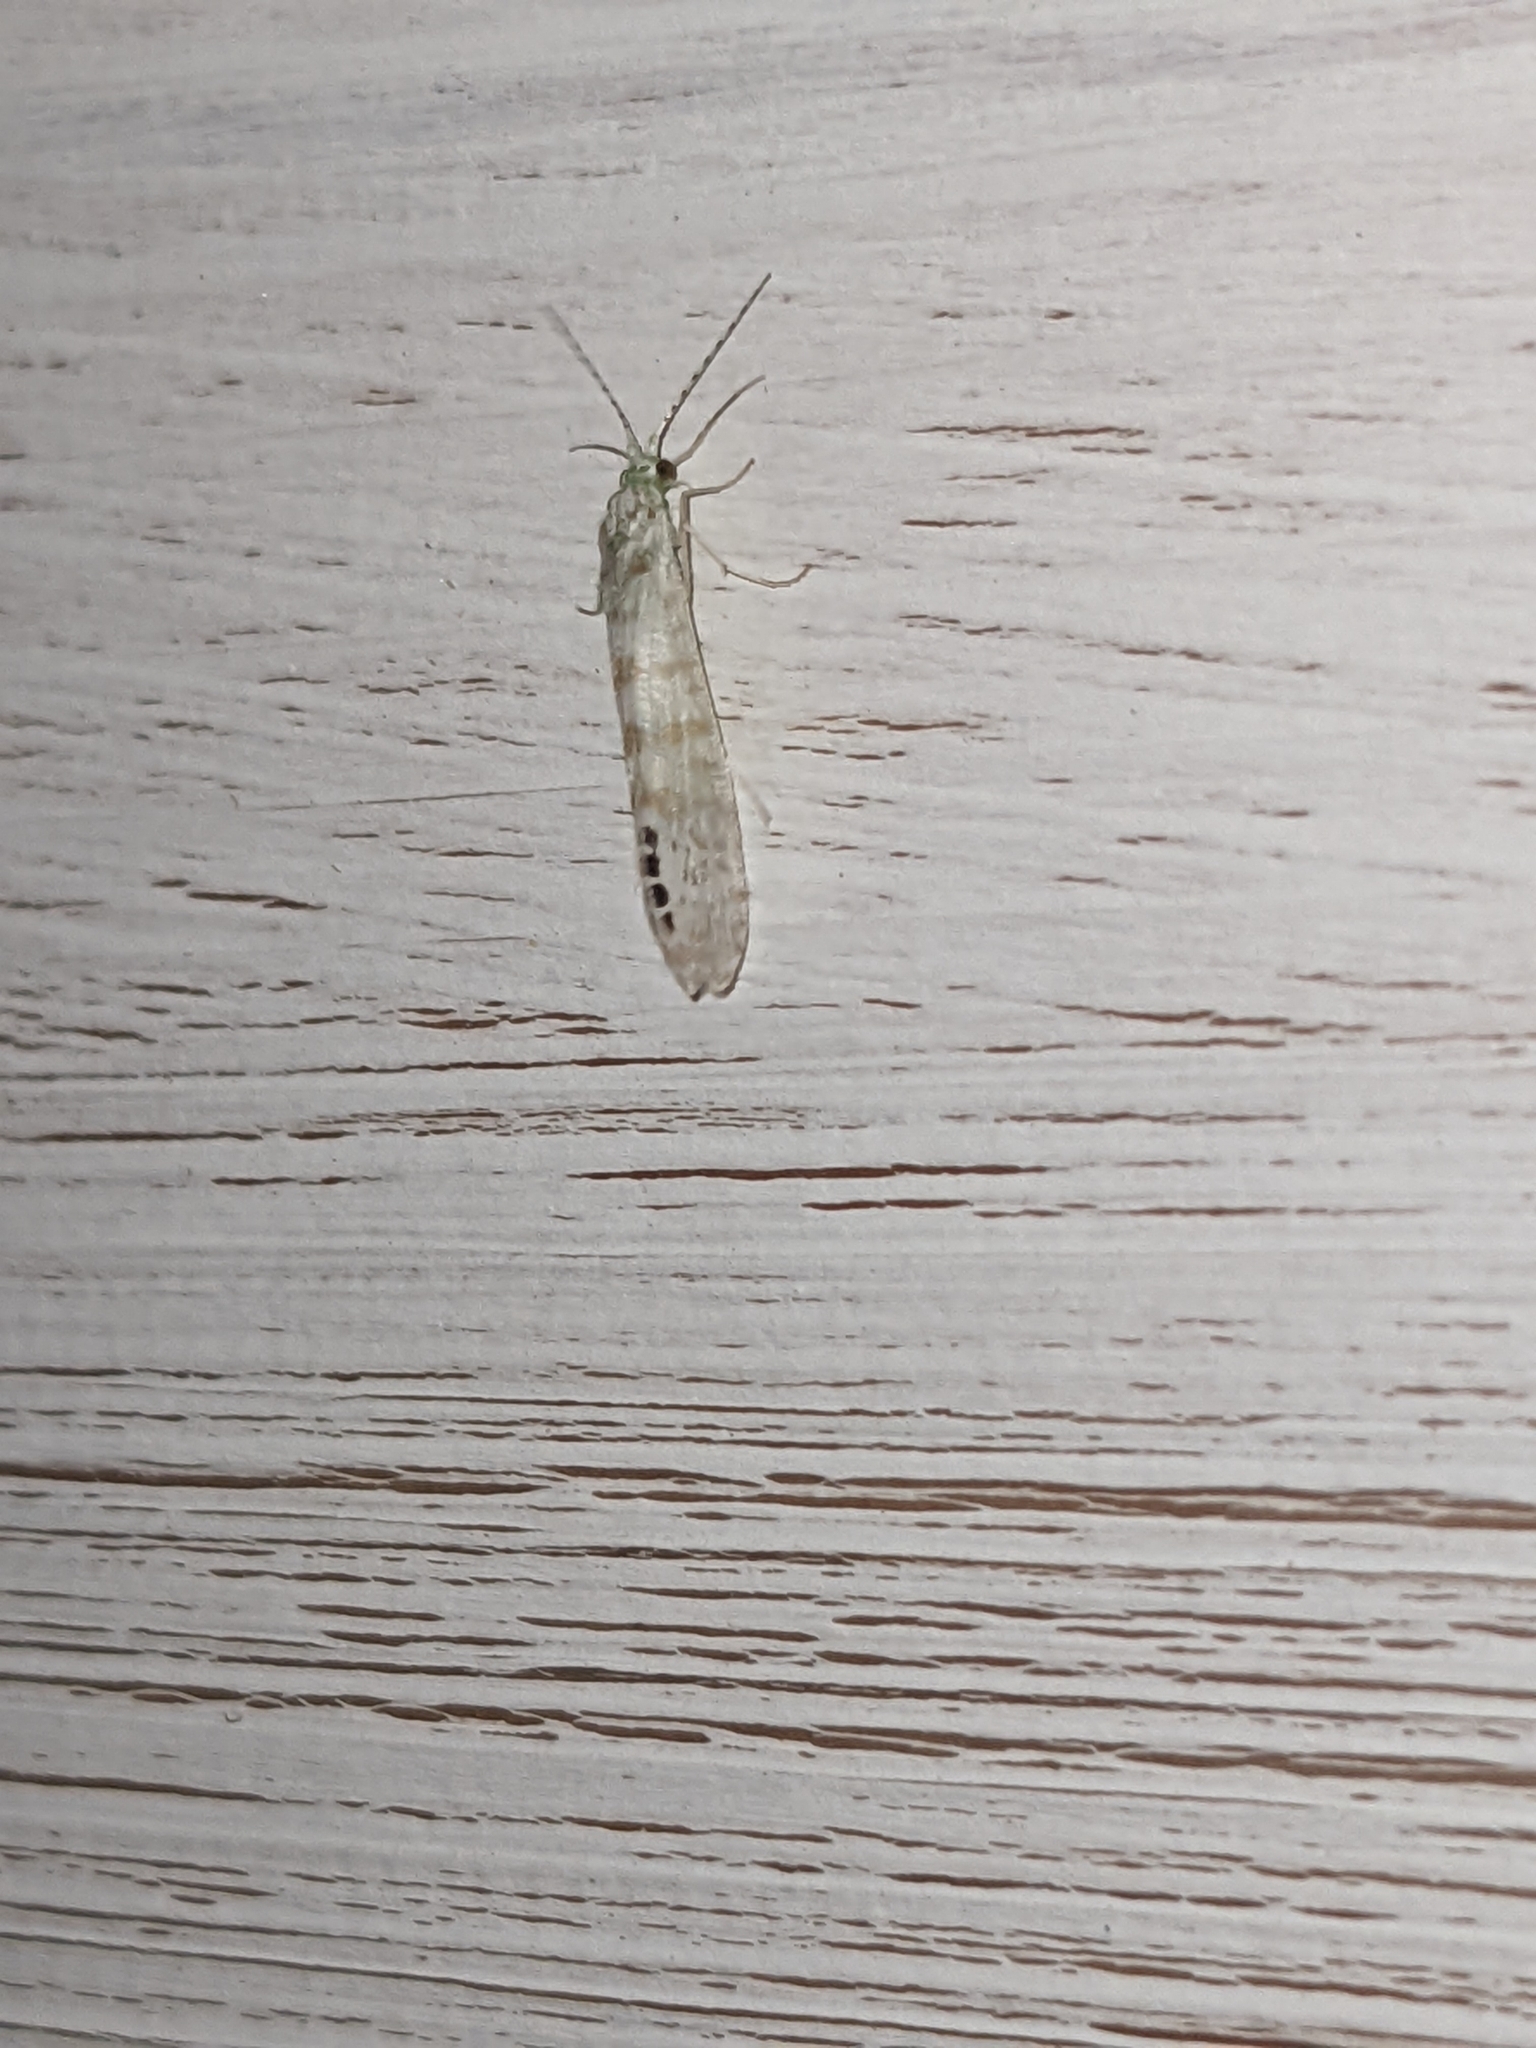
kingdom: Animalia
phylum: Arthropoda
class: Insecta
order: Trichoptera
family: Leptoceridae
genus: Nectopsyche
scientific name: Nectopsyche exquisita
